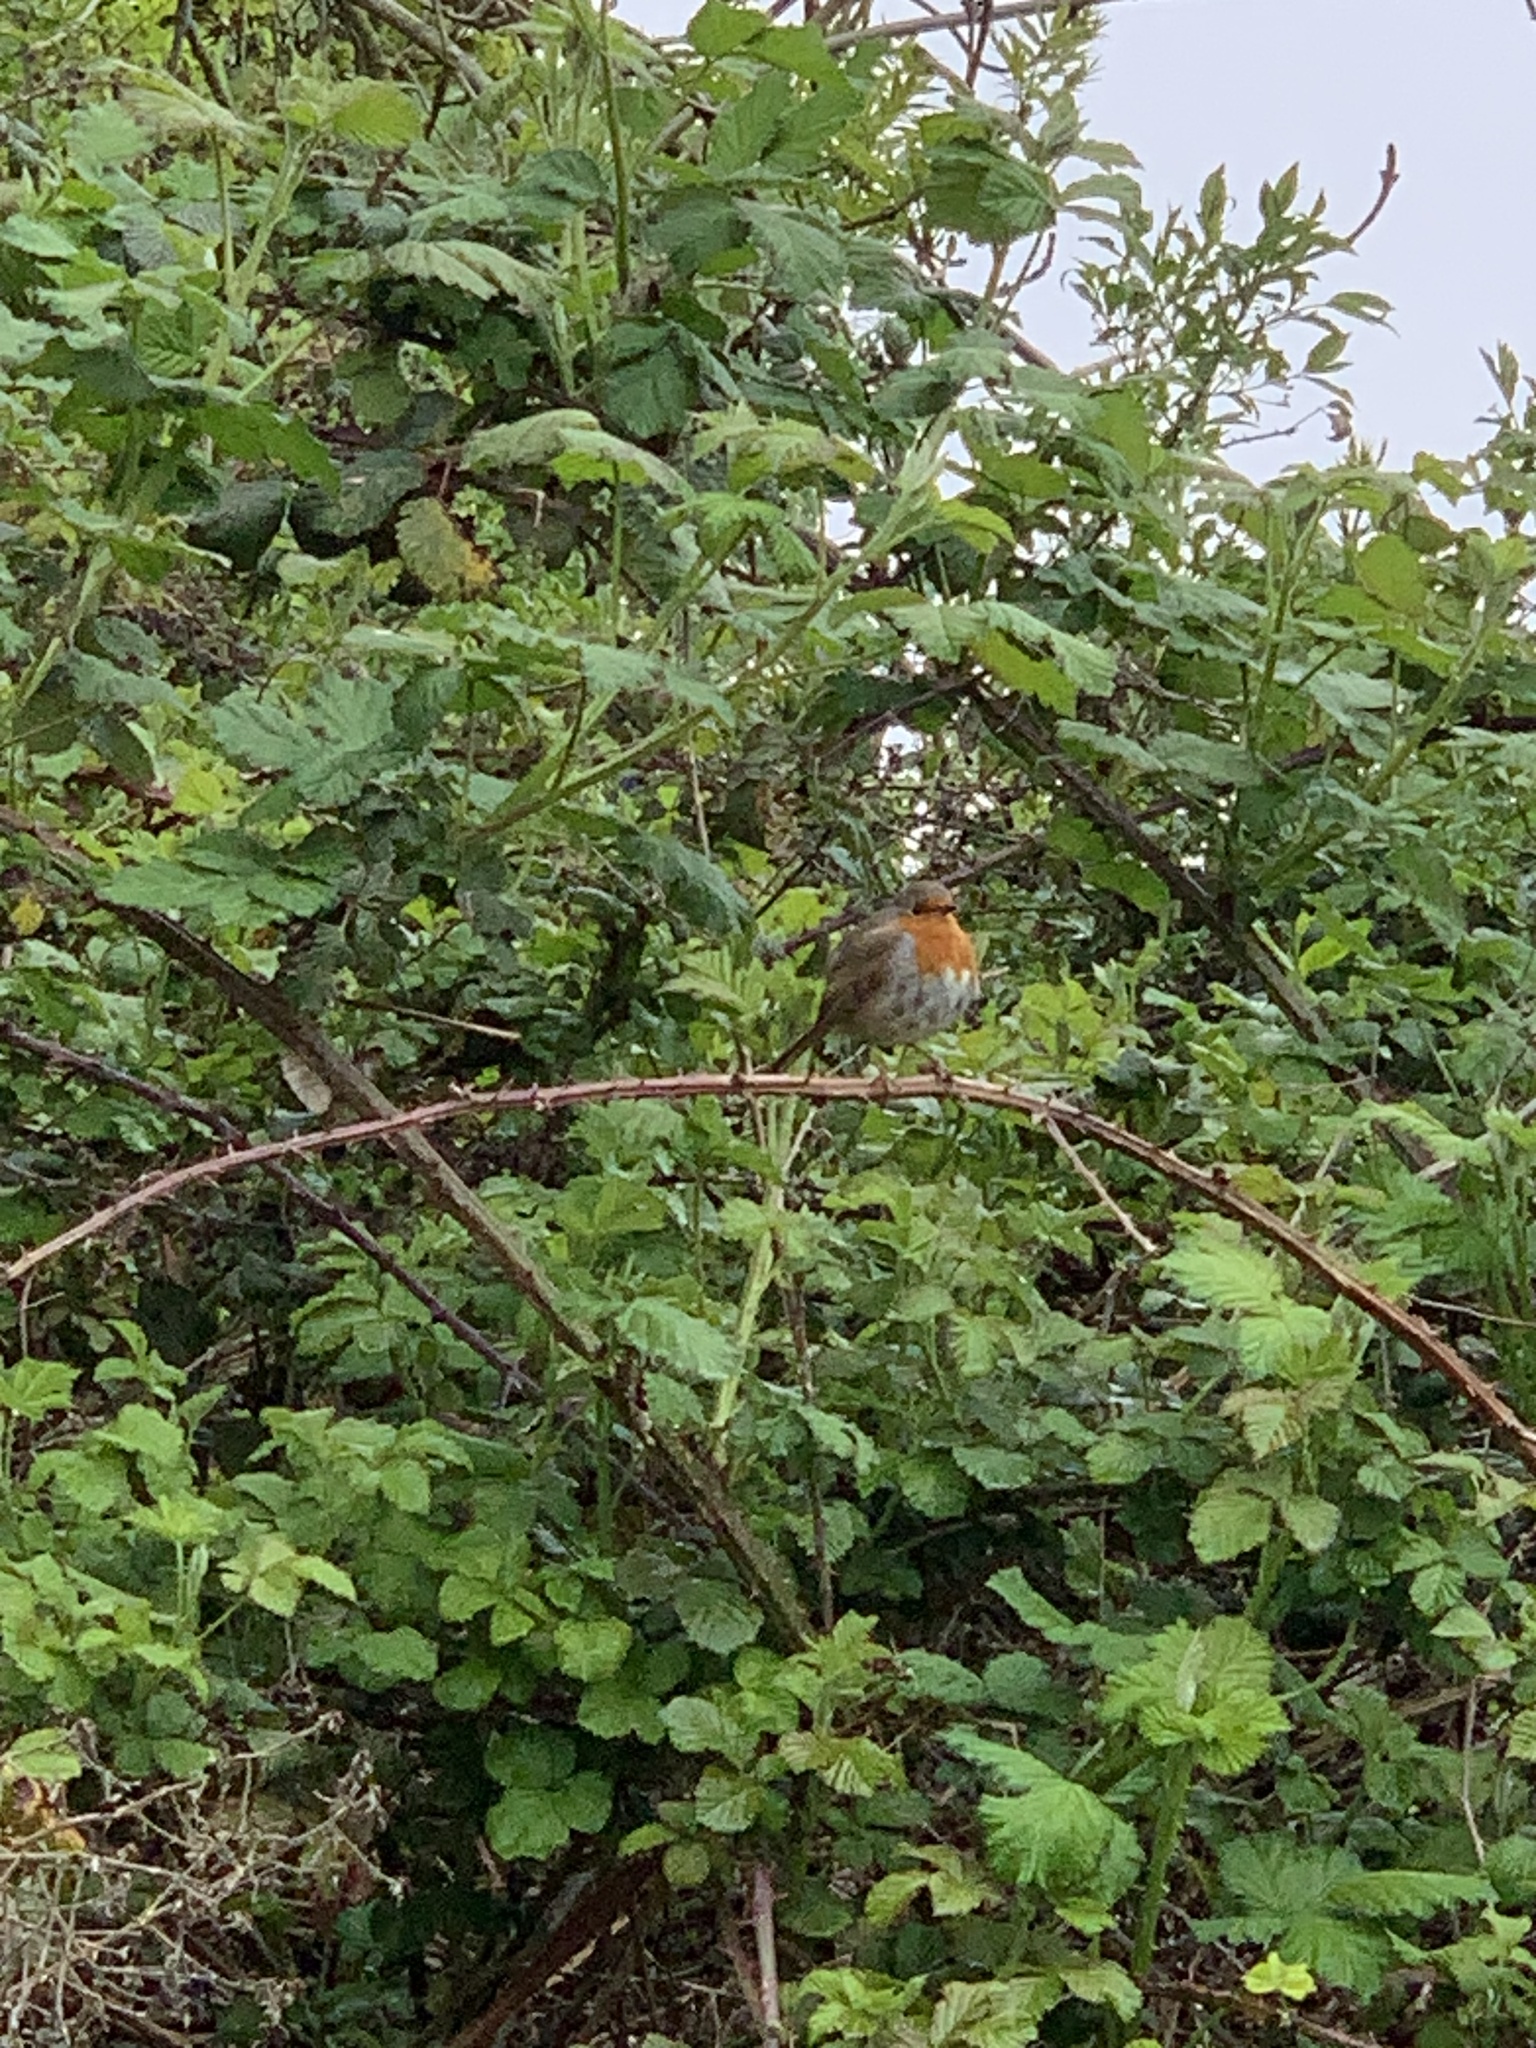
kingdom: Animalia
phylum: Chordata
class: Aves
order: Passeriformes
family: Muscicapidae
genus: Erithacus
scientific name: Erithacus rubecula
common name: European robin
